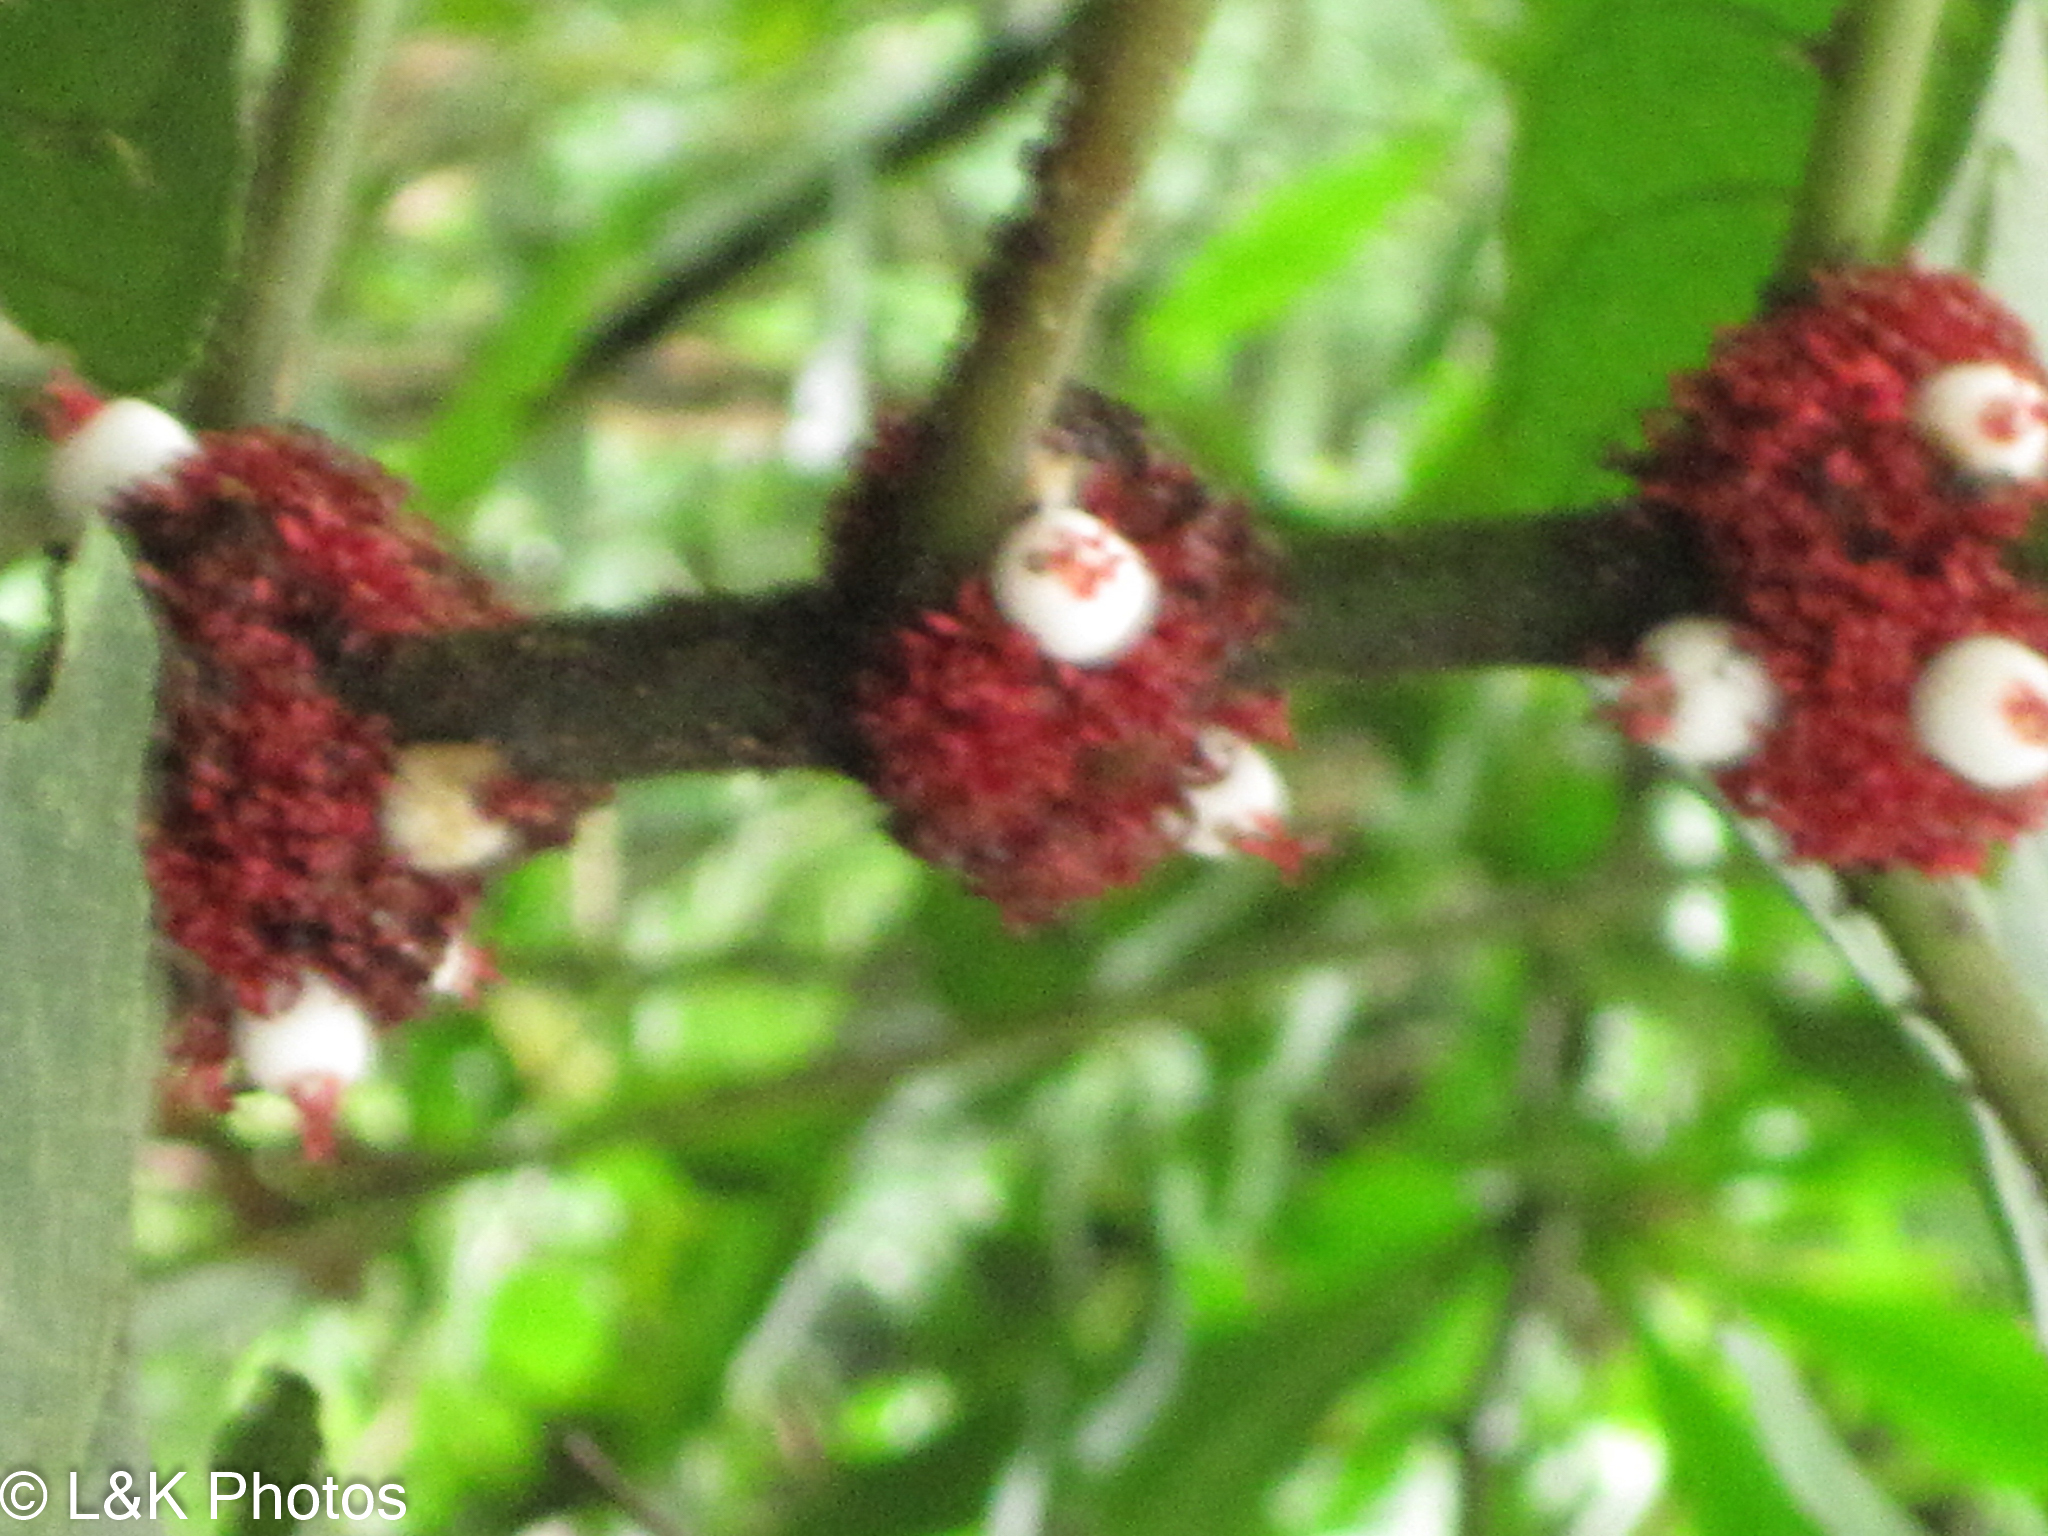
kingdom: Plantae
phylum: Tracheophyta
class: Magnoliopsida
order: Gentianales
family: Rubiaceae
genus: Hoffmannia
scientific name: Hoffmannia congesta
